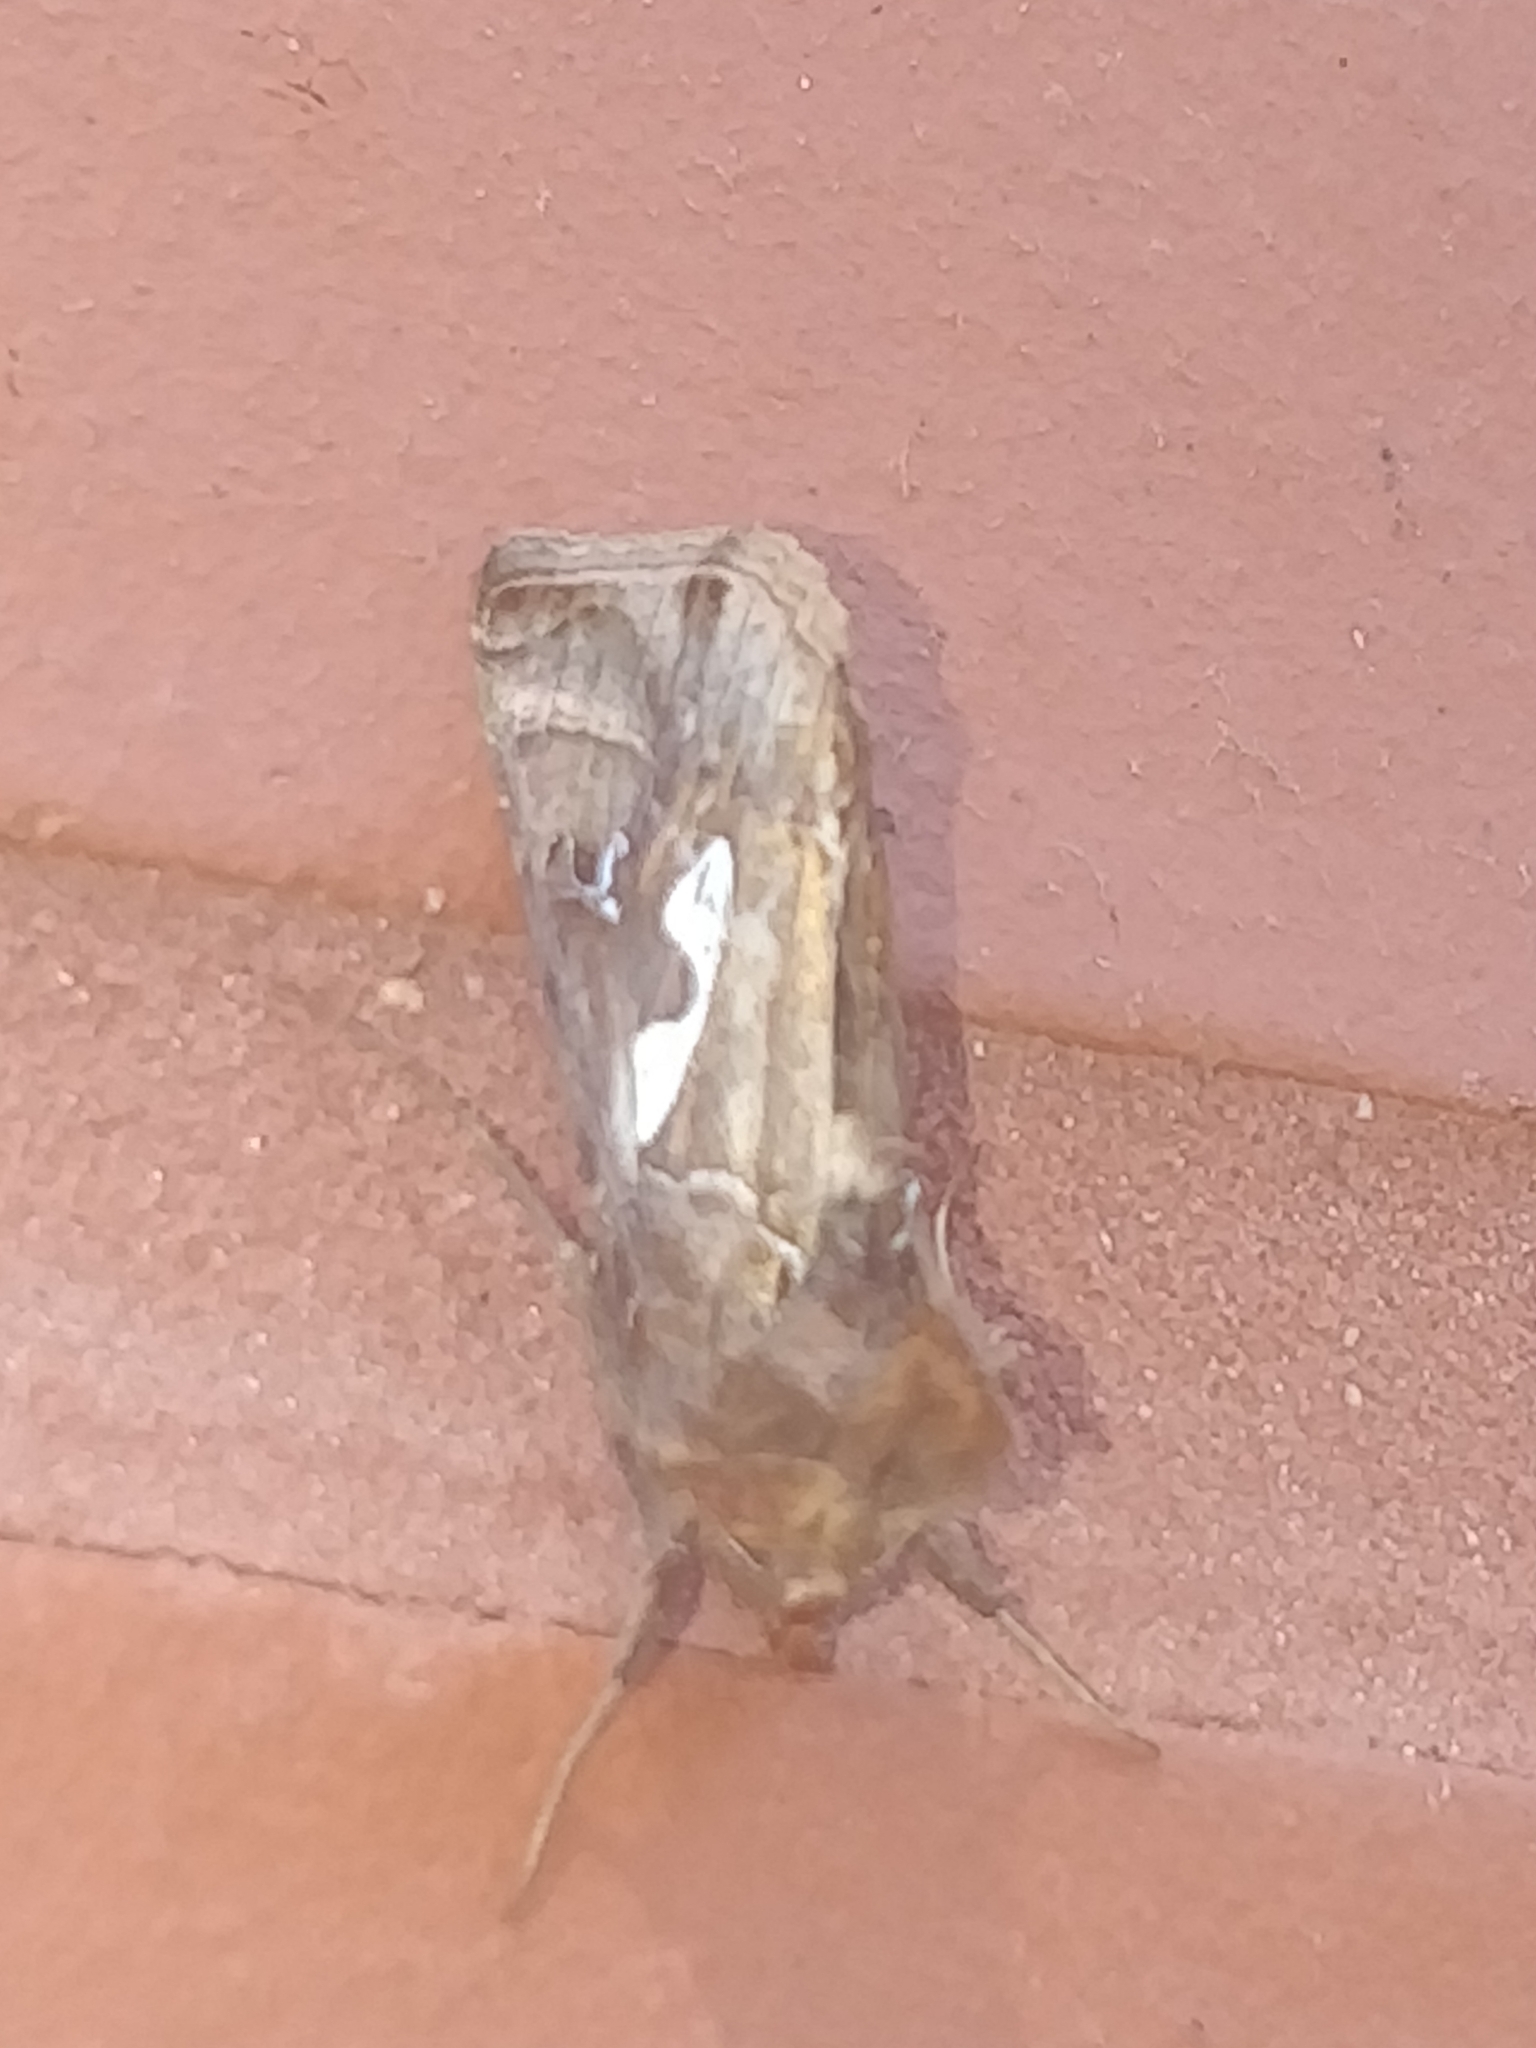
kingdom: Animalia
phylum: Arthropoda
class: Insecta
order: Lepidoptera
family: Noctuidae
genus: Megalographa
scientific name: Megalographa biloba
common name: Cutworm
